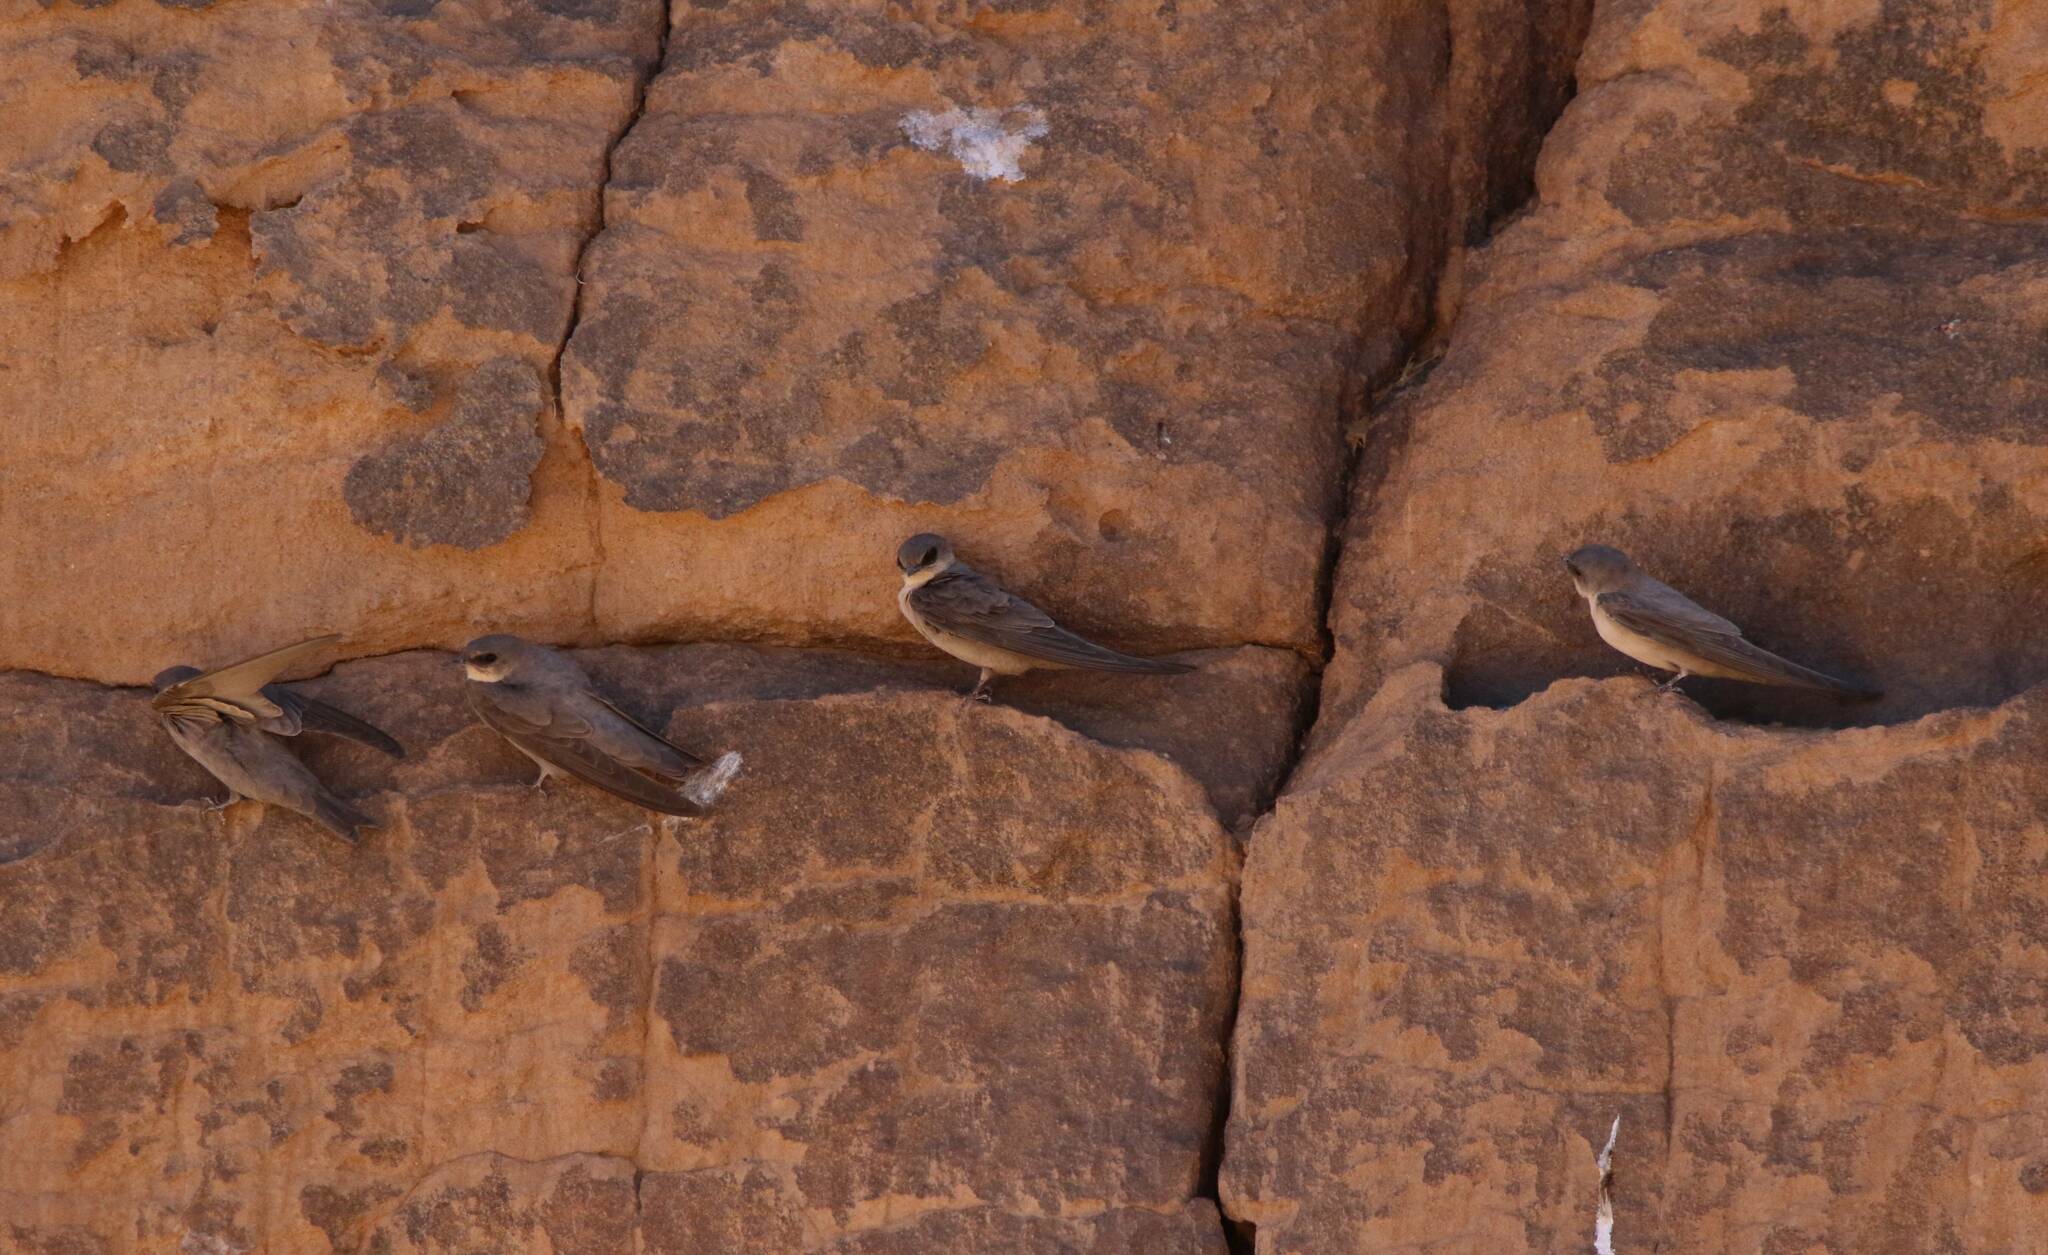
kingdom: Animalia
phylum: Chordata
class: Aves
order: Passeriformes
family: Hirundinidae
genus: Ptyonoprogne
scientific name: Ptyonoprogne fuligula
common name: Rock martin
